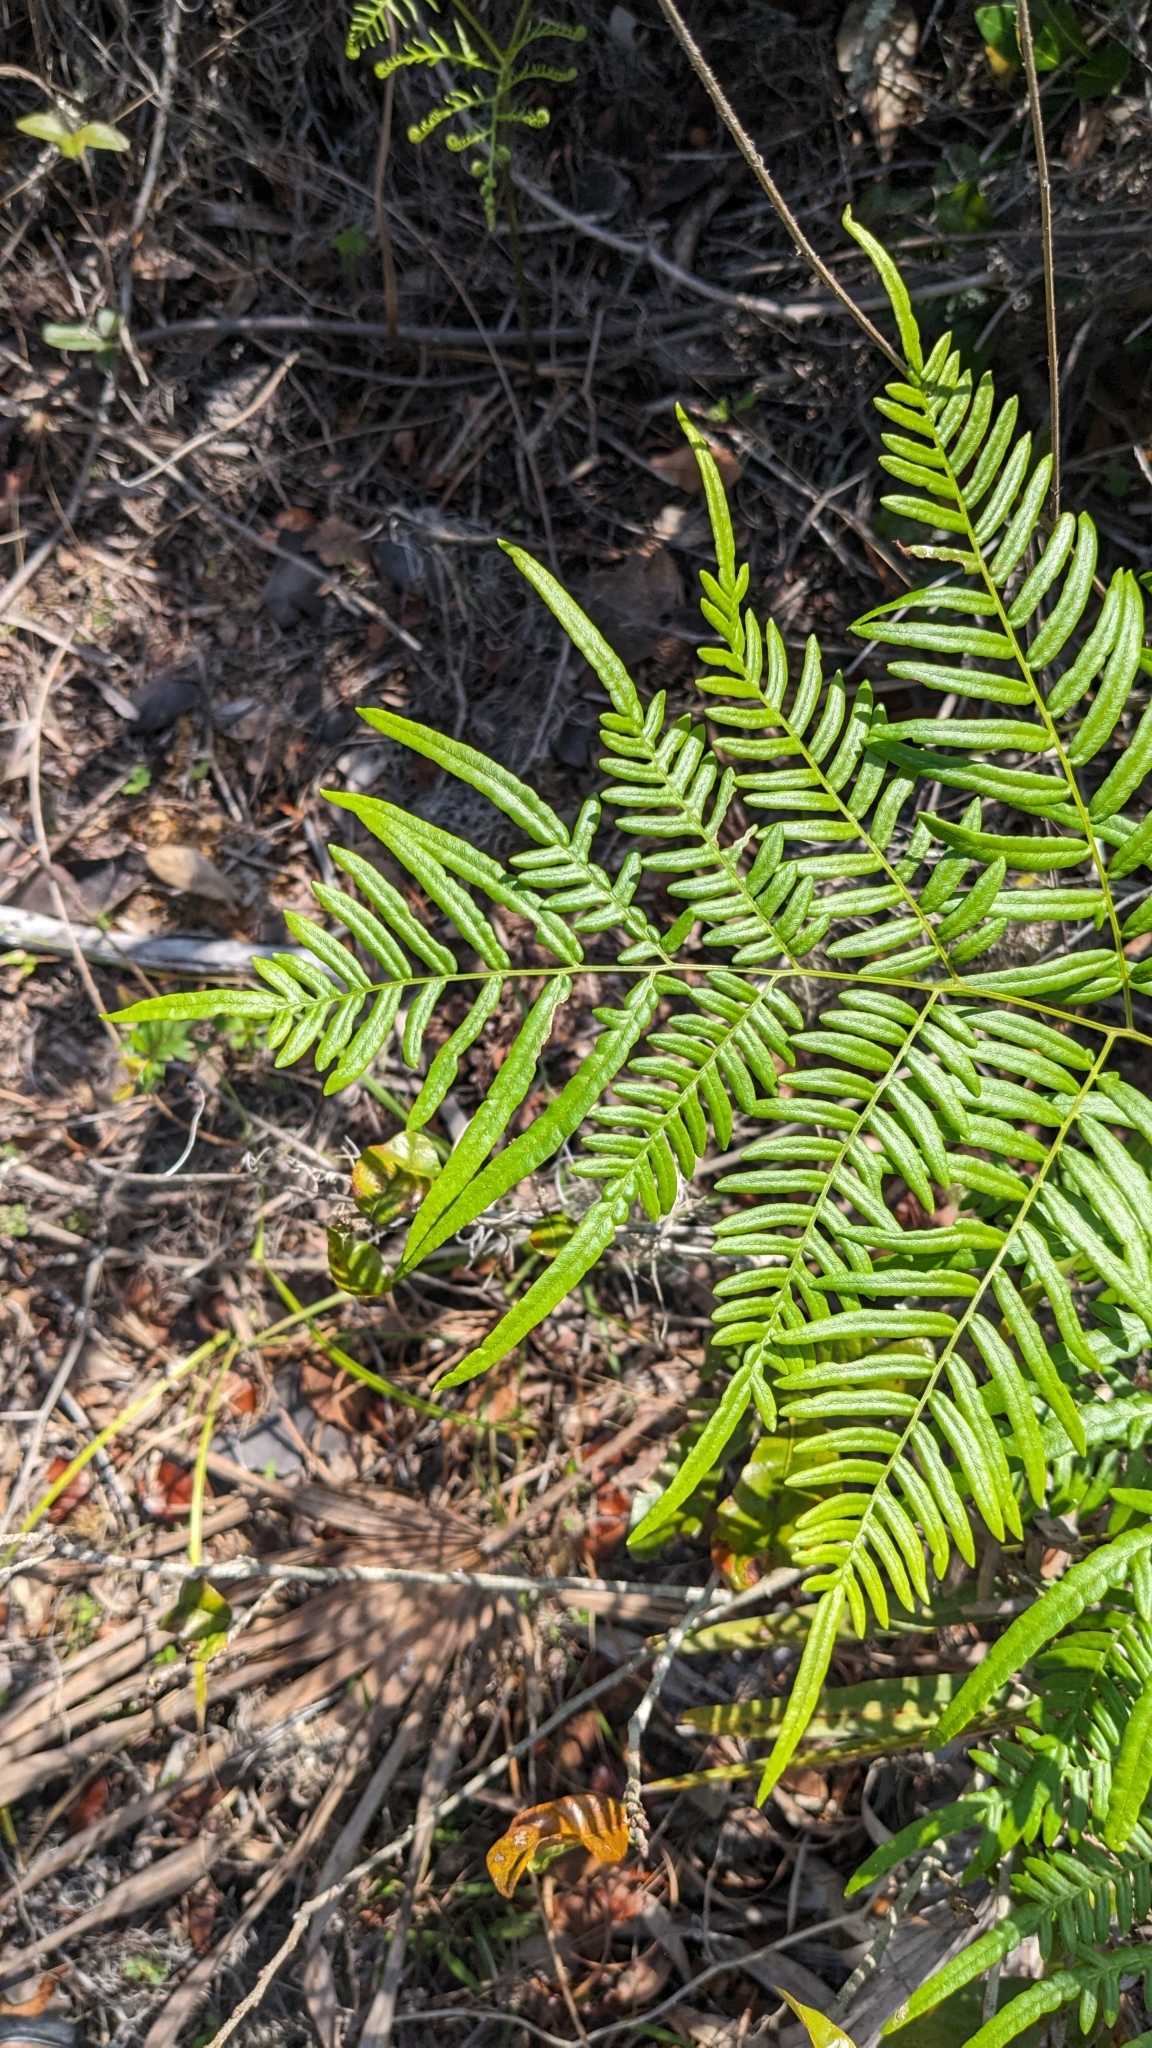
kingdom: Plantae
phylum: Tracheophyta
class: Polypodiopsida
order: Polypodiales
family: Dennstaedtiaceae
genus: Pteridium
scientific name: Pteridium
